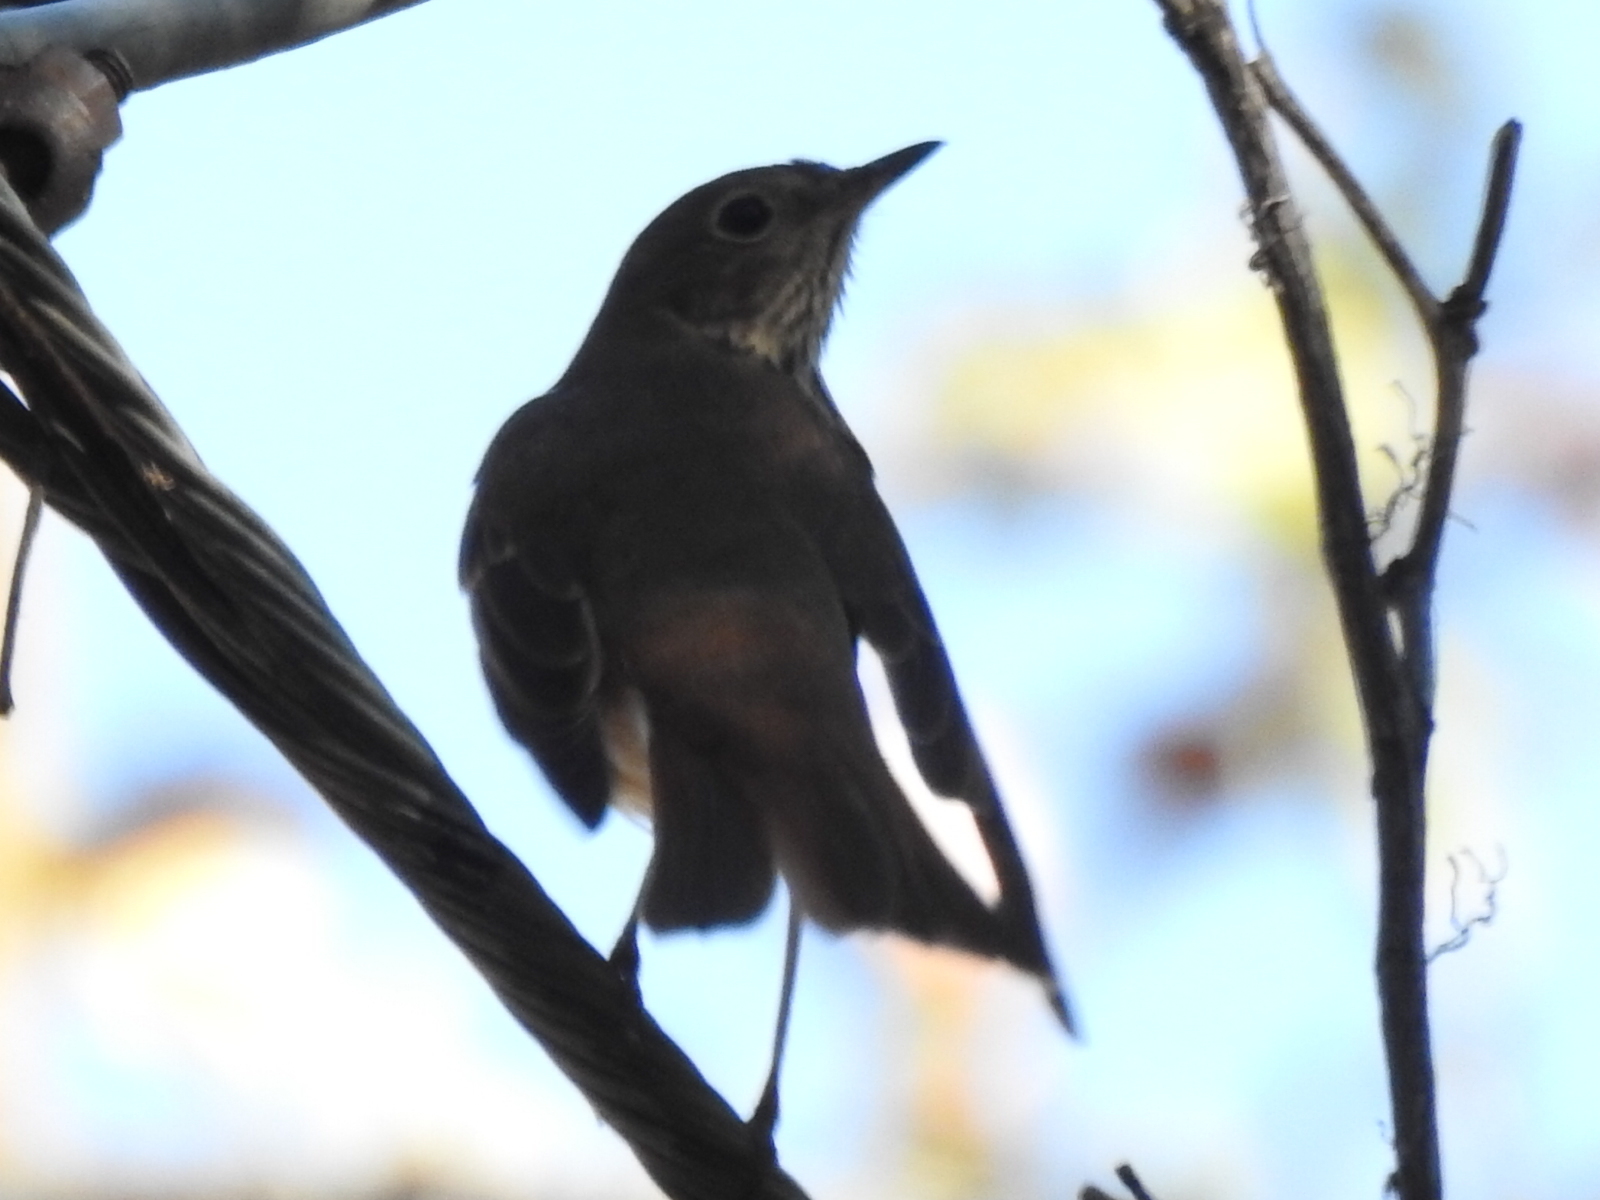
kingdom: Animalia
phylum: Chordata
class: Aves
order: Passeriformes
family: Turdidae
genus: Catharus
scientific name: Catharus guttatus
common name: Hermit thrush
